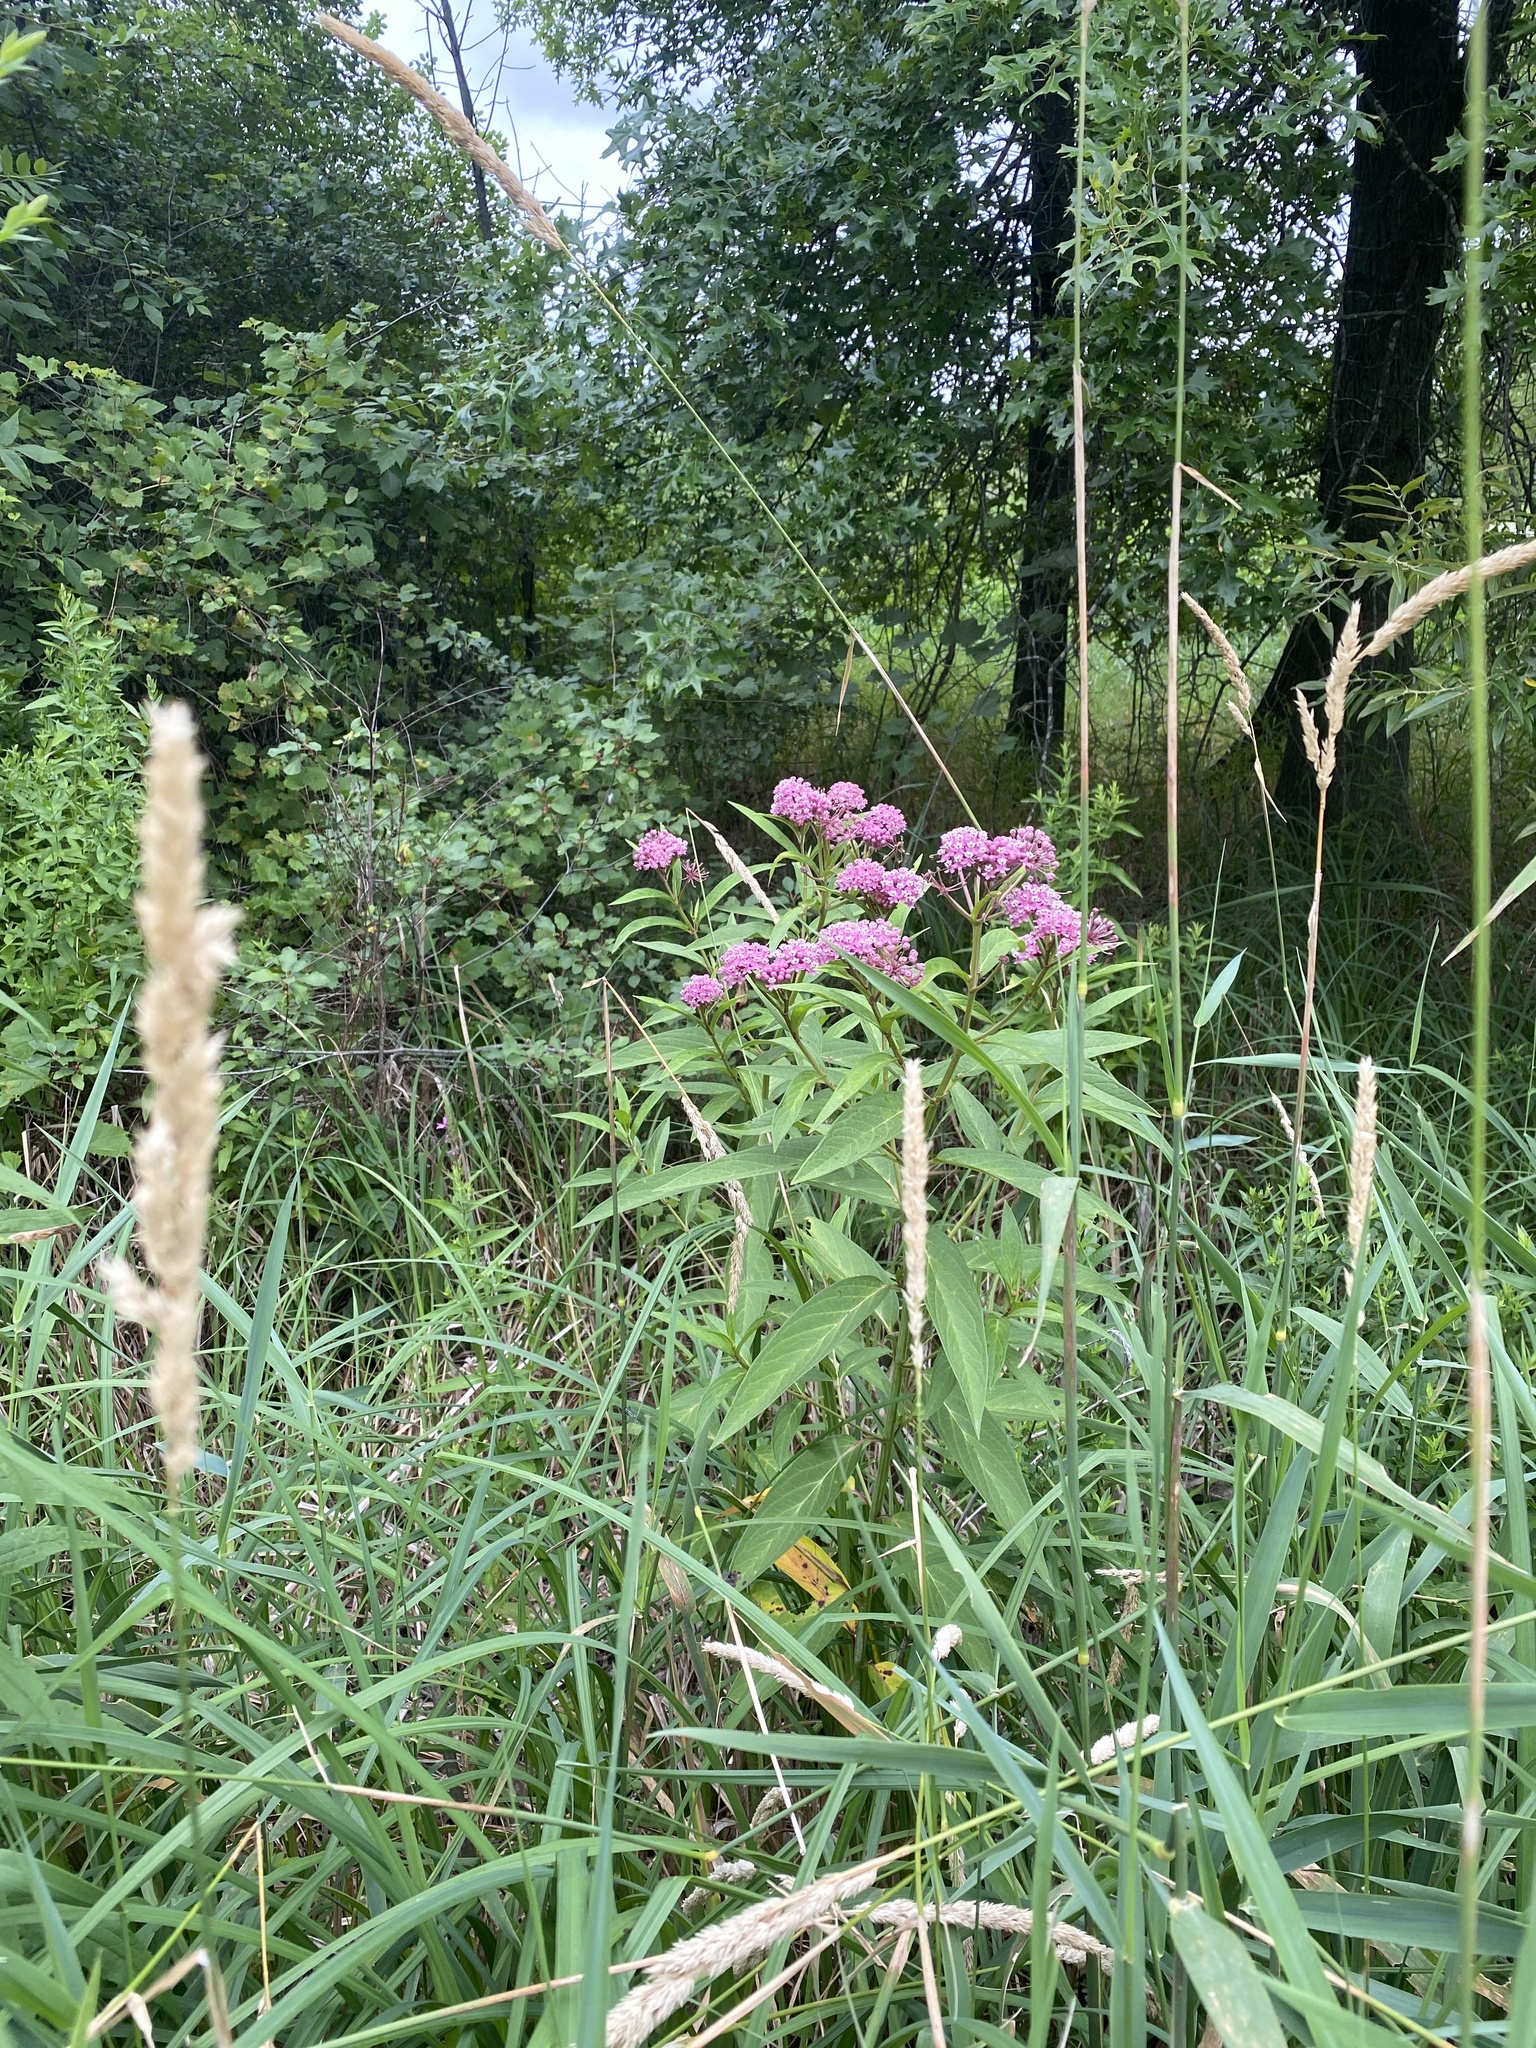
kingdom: Plantae
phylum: Tracheophyta
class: Magnoliopsida
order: Gentianales
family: Apocynaceae
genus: Asclepias
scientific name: Asclepias incarnata
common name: Swamp milkweed
